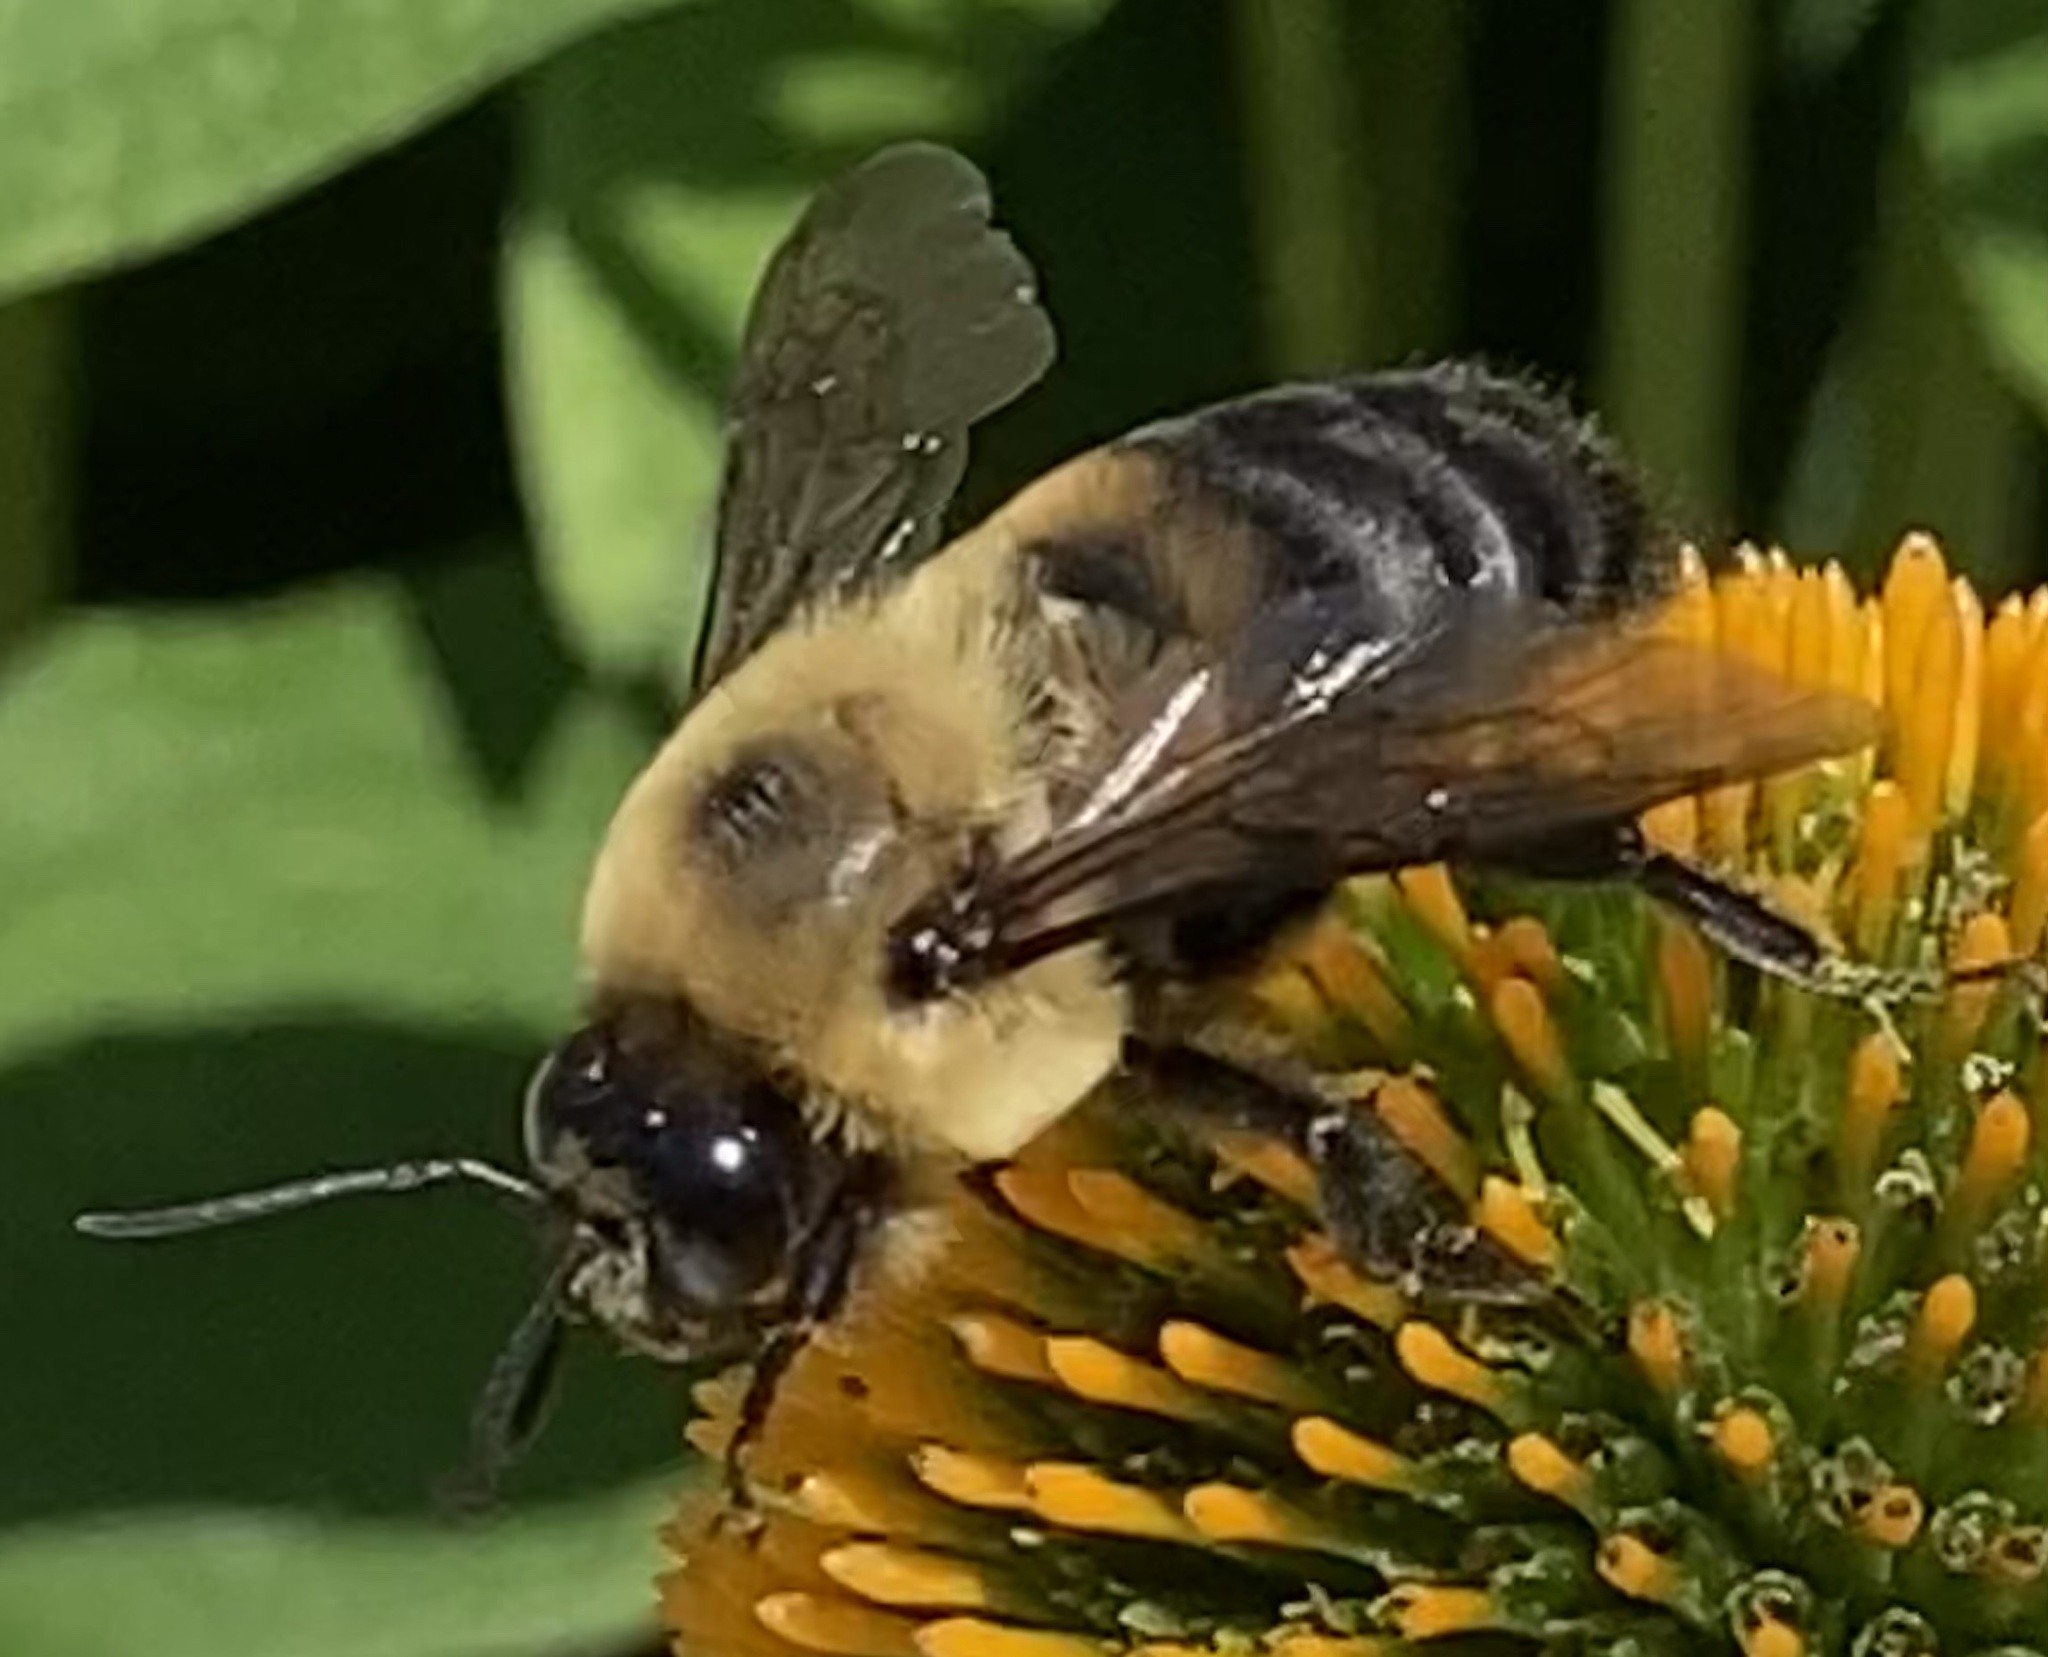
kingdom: Animalia
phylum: Arthropoda
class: Insecta
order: Hymenoptera
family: Apidae
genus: Bombus
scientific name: Bombus griseocollis
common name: Brown-belted bumble bee
